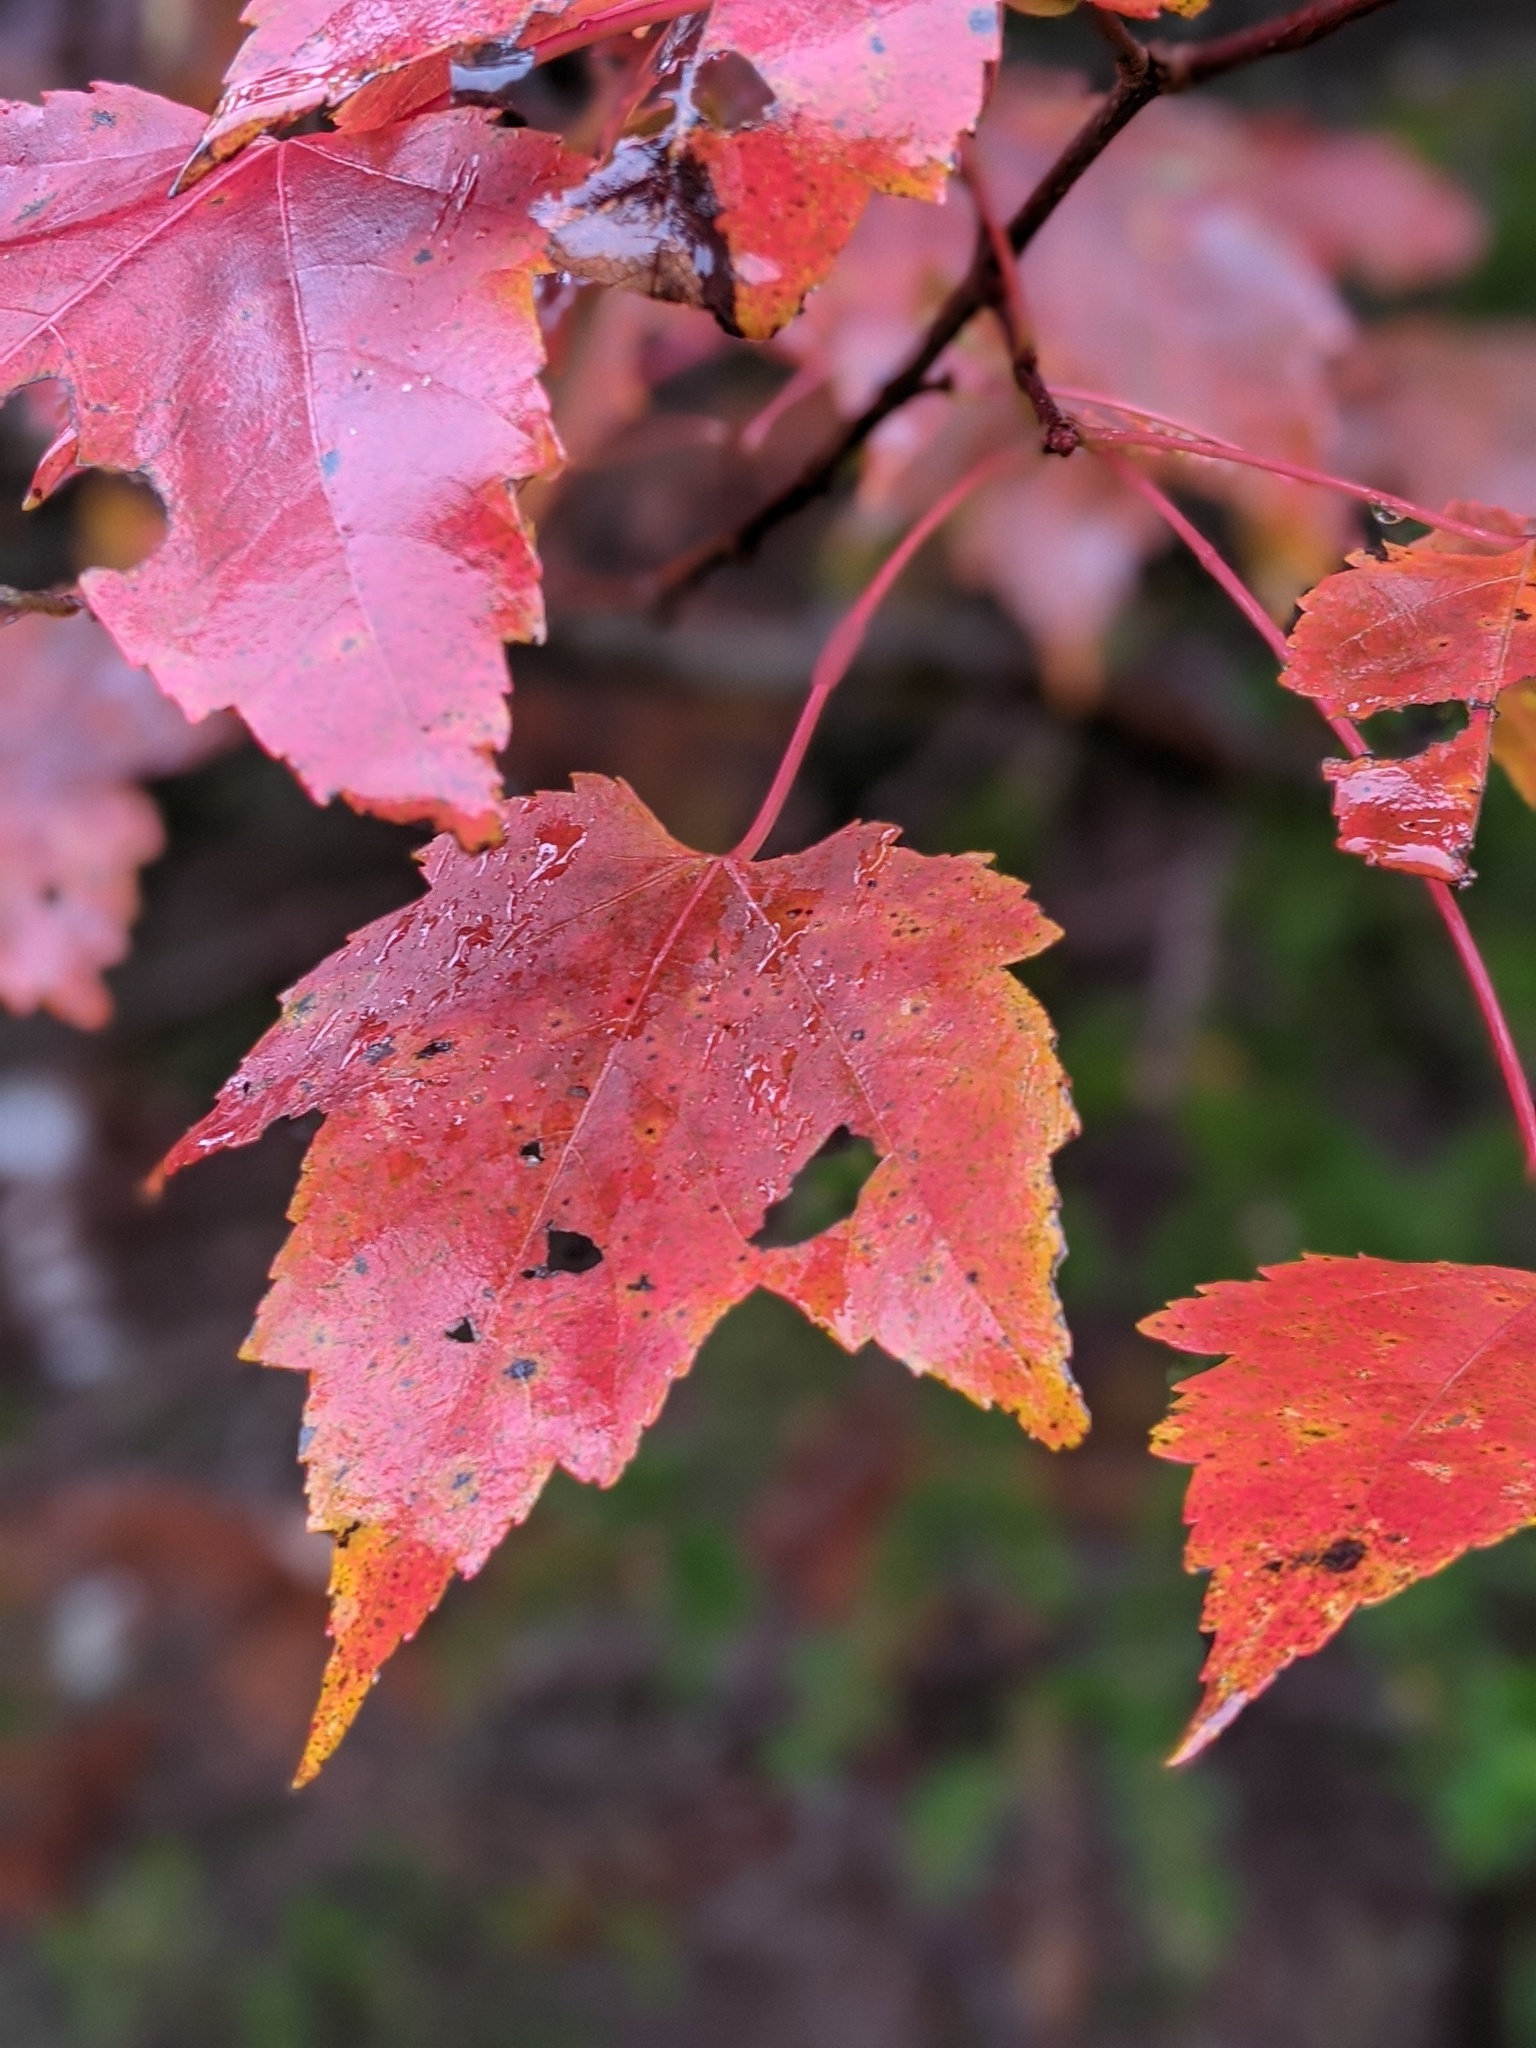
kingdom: Plantae
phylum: Tracheophyta
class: Magnoliopsida
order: Sapindales
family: Sapindaceae
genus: Acer
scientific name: Acer rubrum
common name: Red maple
